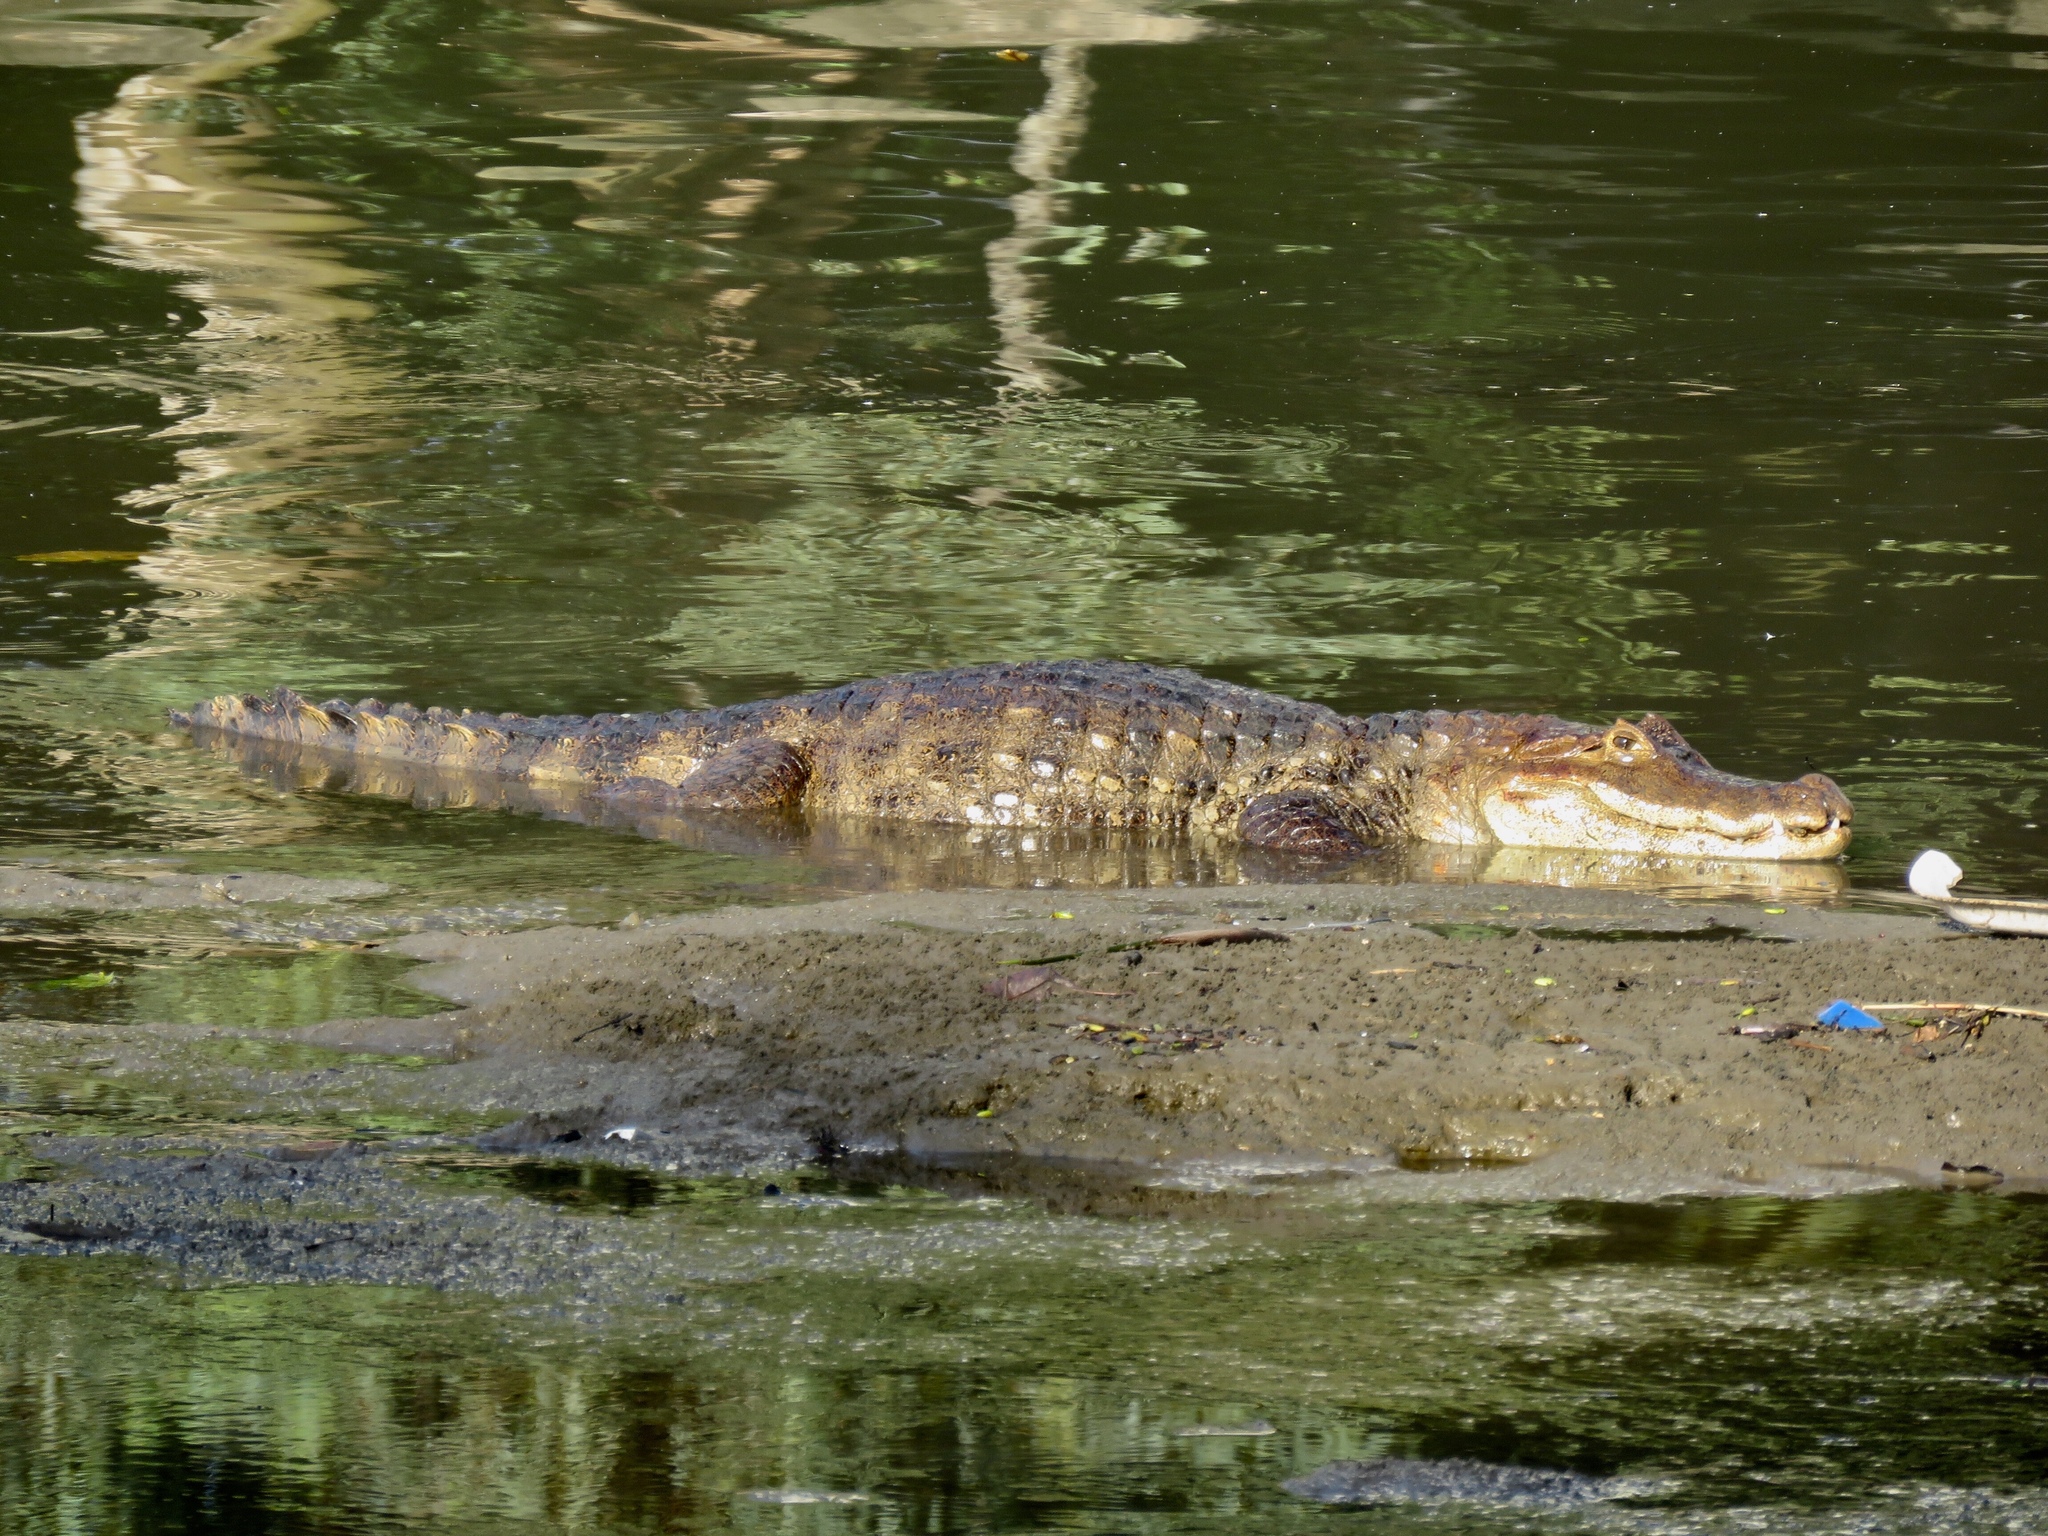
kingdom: Animalia
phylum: Chordata
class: Crocodylia
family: Alligatoridae
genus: Caiman
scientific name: Caiman crocodilus
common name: Common caiman
